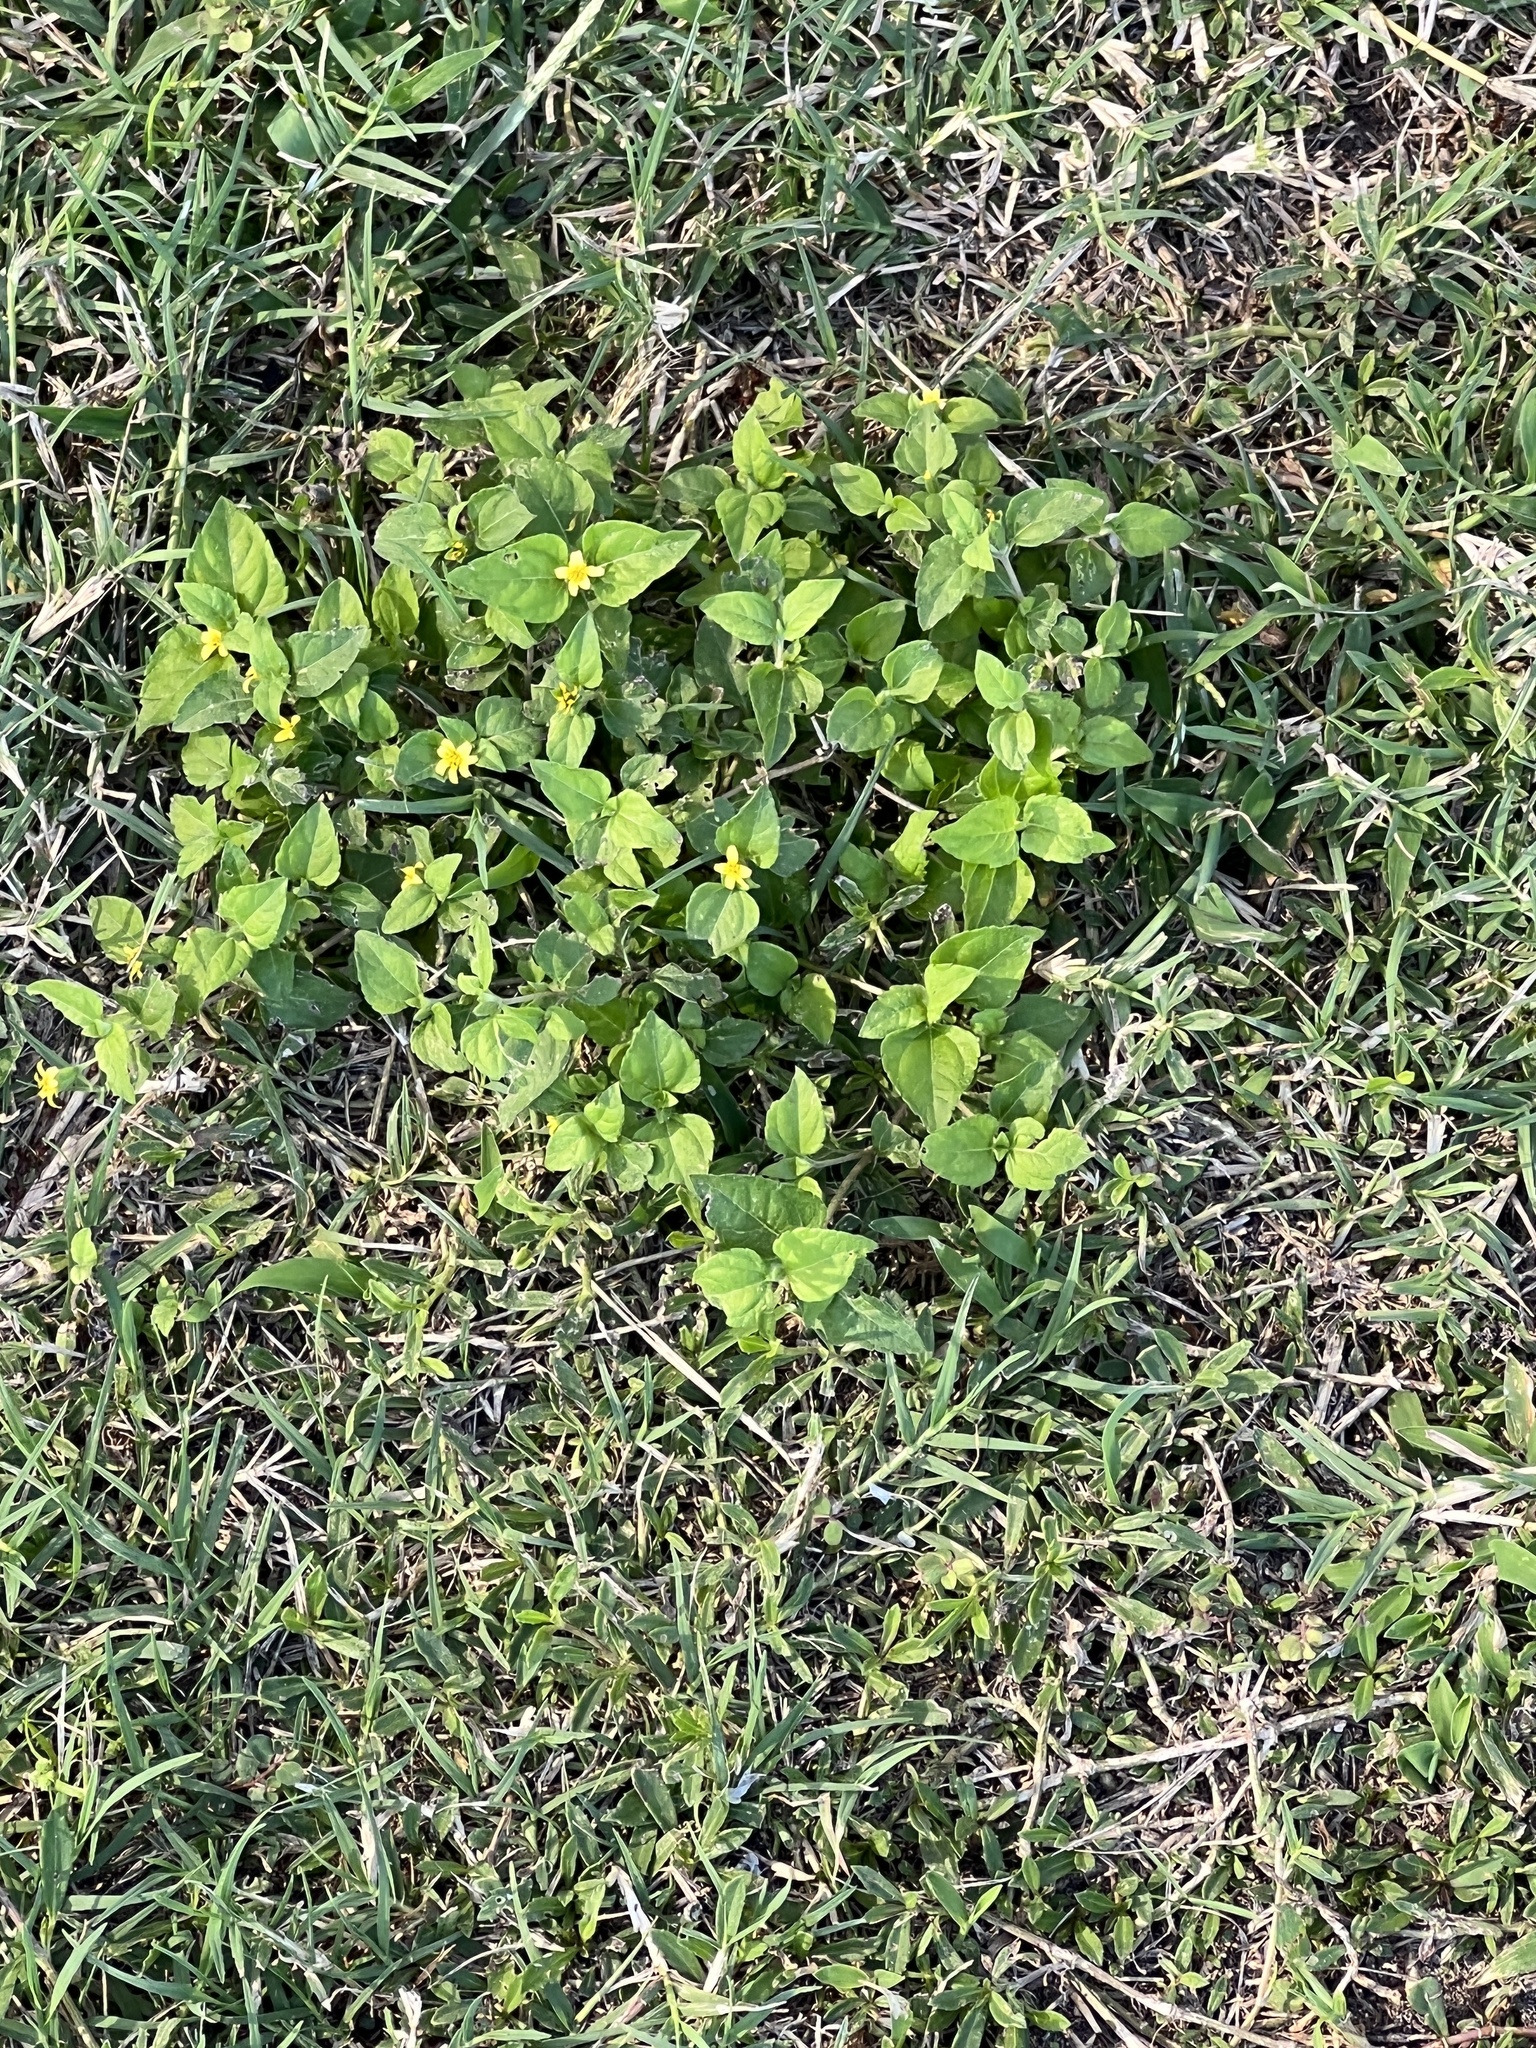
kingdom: Plantae
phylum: Tracheophyta
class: Magnoliopsida
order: Asterales
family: Asteraceae
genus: Calyptocarpus
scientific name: Calyptocarpus vialis
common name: Straggler daisy
